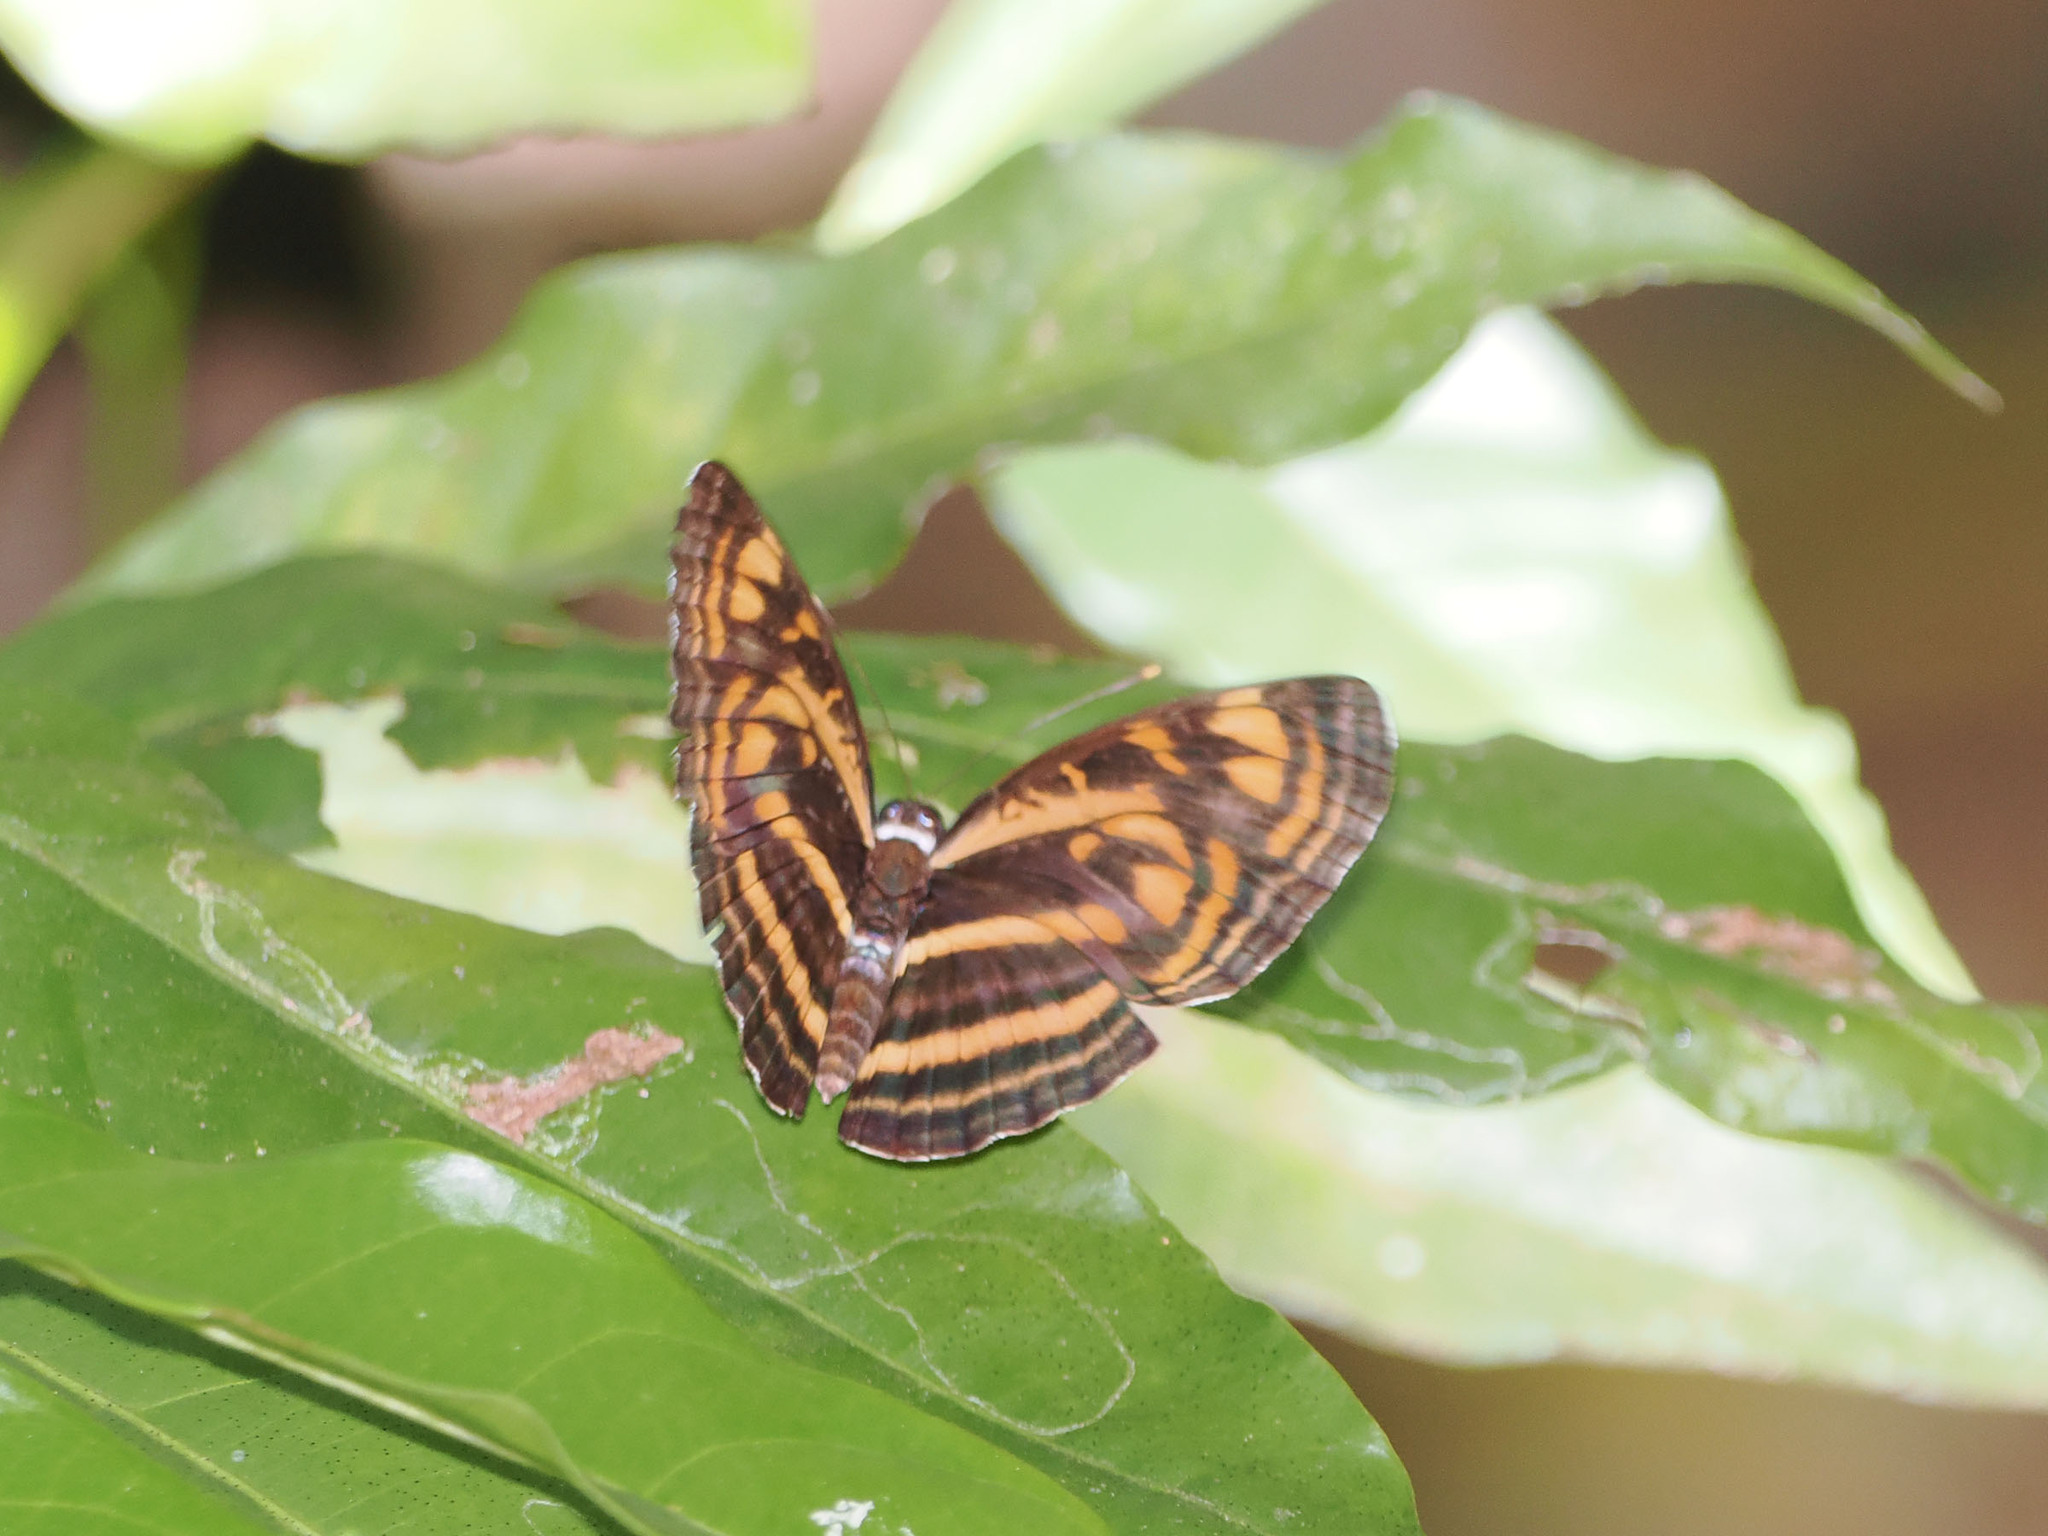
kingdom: Animalia
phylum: Arthropoda
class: Insecta
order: Lepidoptera
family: Nymphalidae
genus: Lasippa
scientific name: Lasippa neriphus
